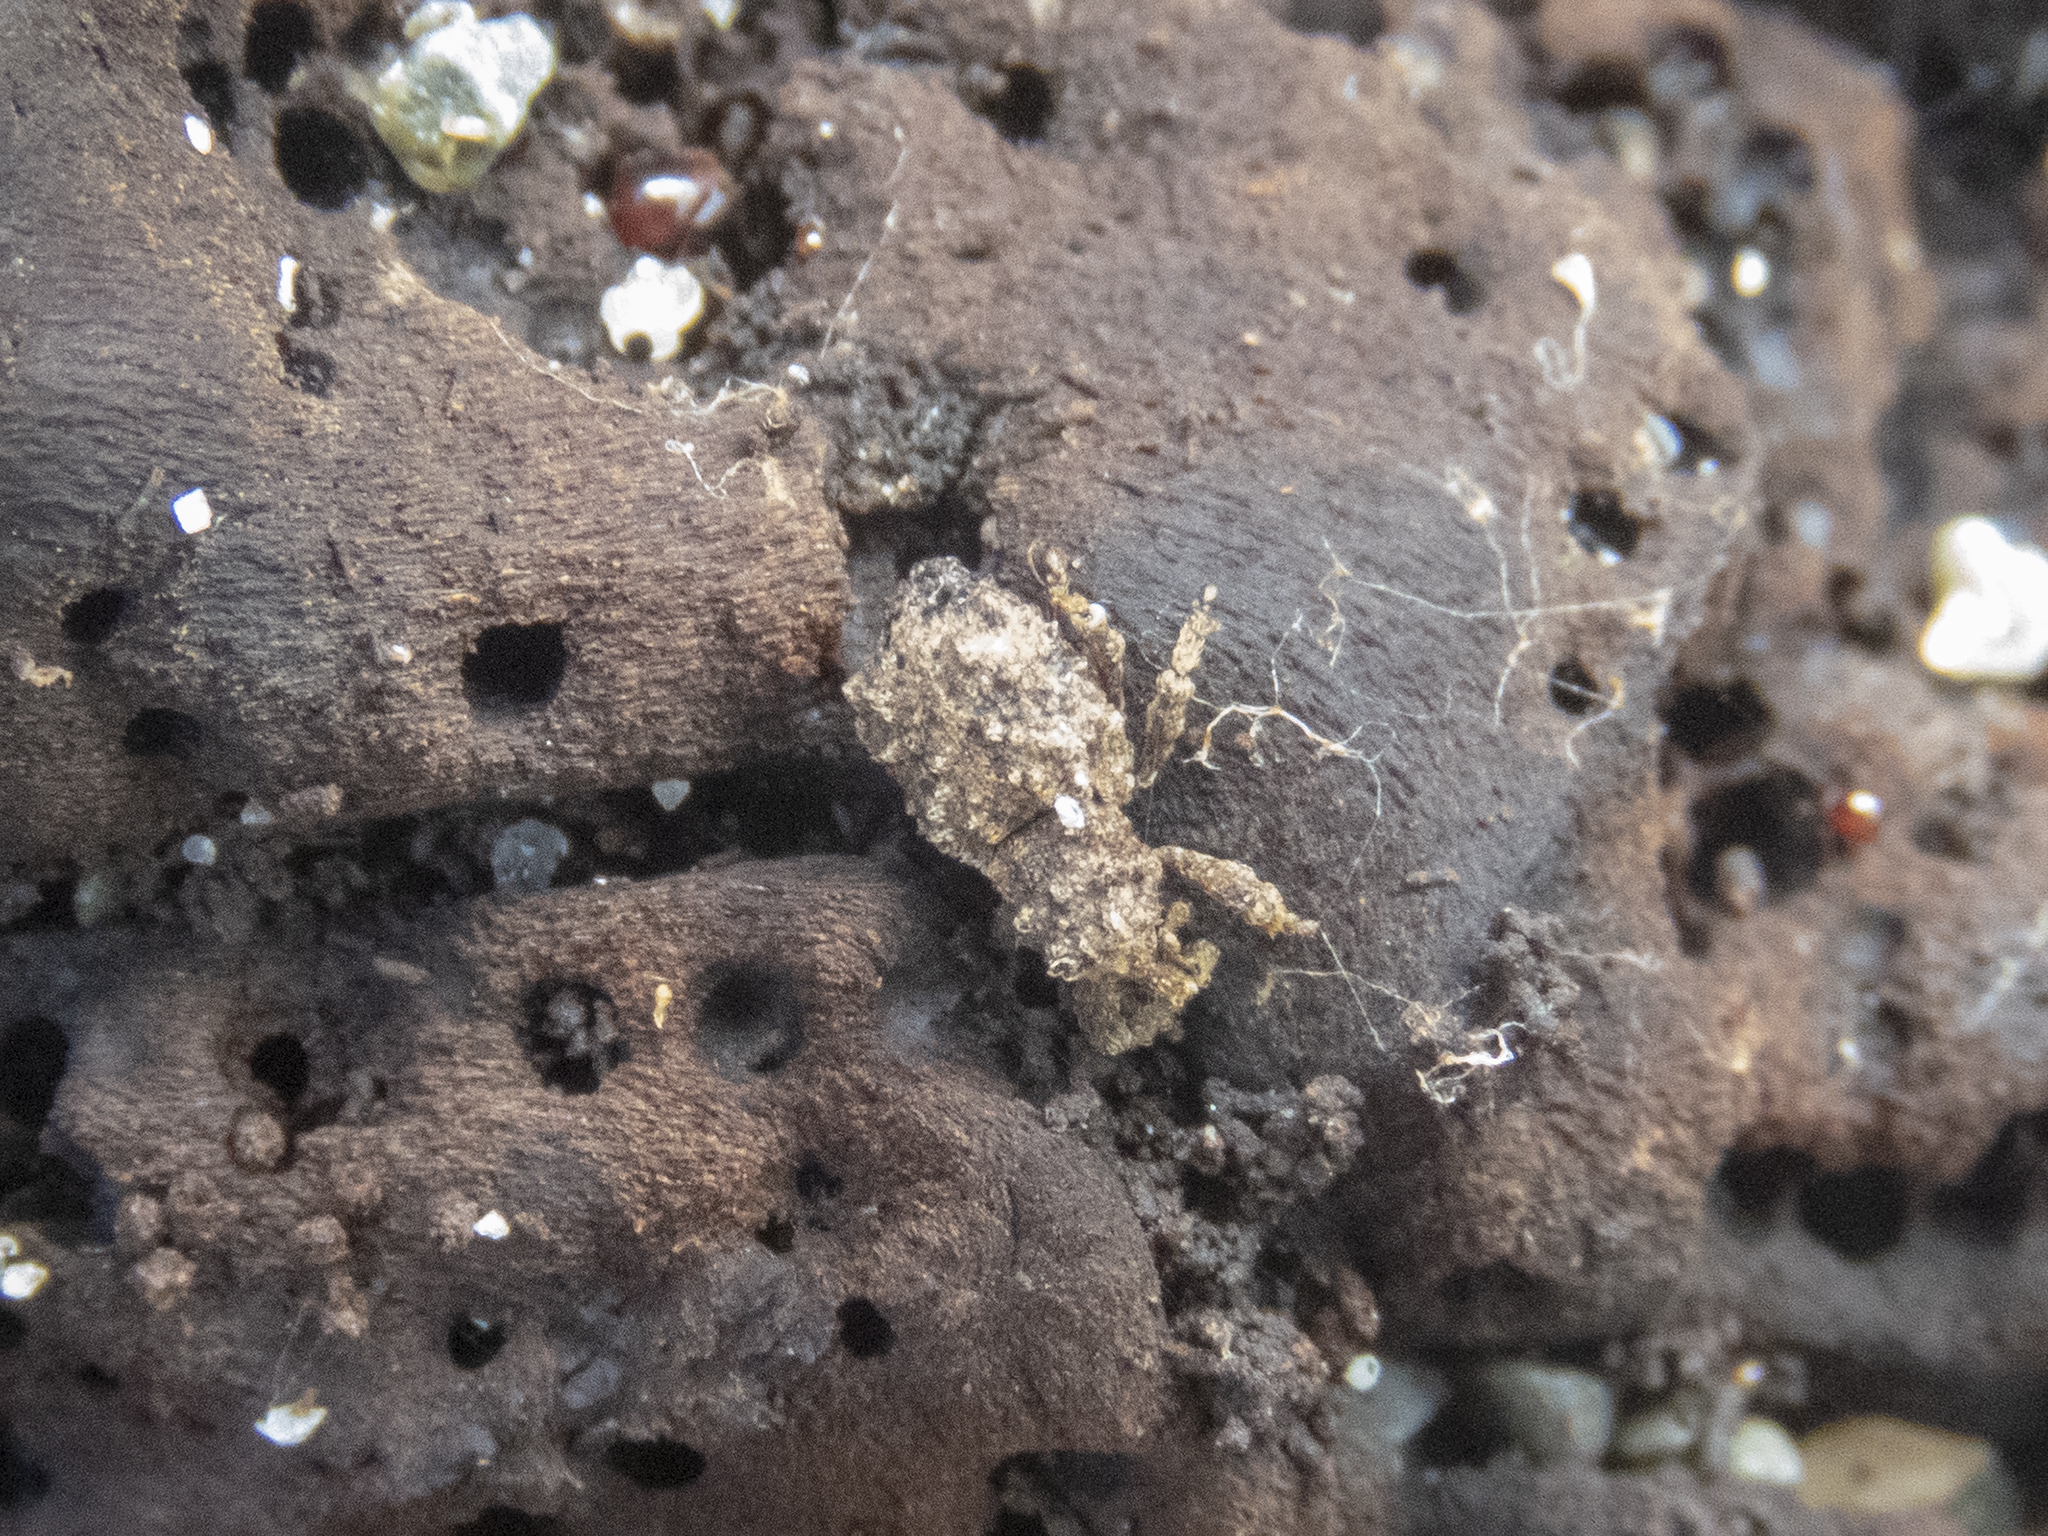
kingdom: Animalia
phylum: Arthropoda
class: Insecta
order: Coleoptera
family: Curculionidae
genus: Phrynixus
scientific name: Phrynixus astutus
